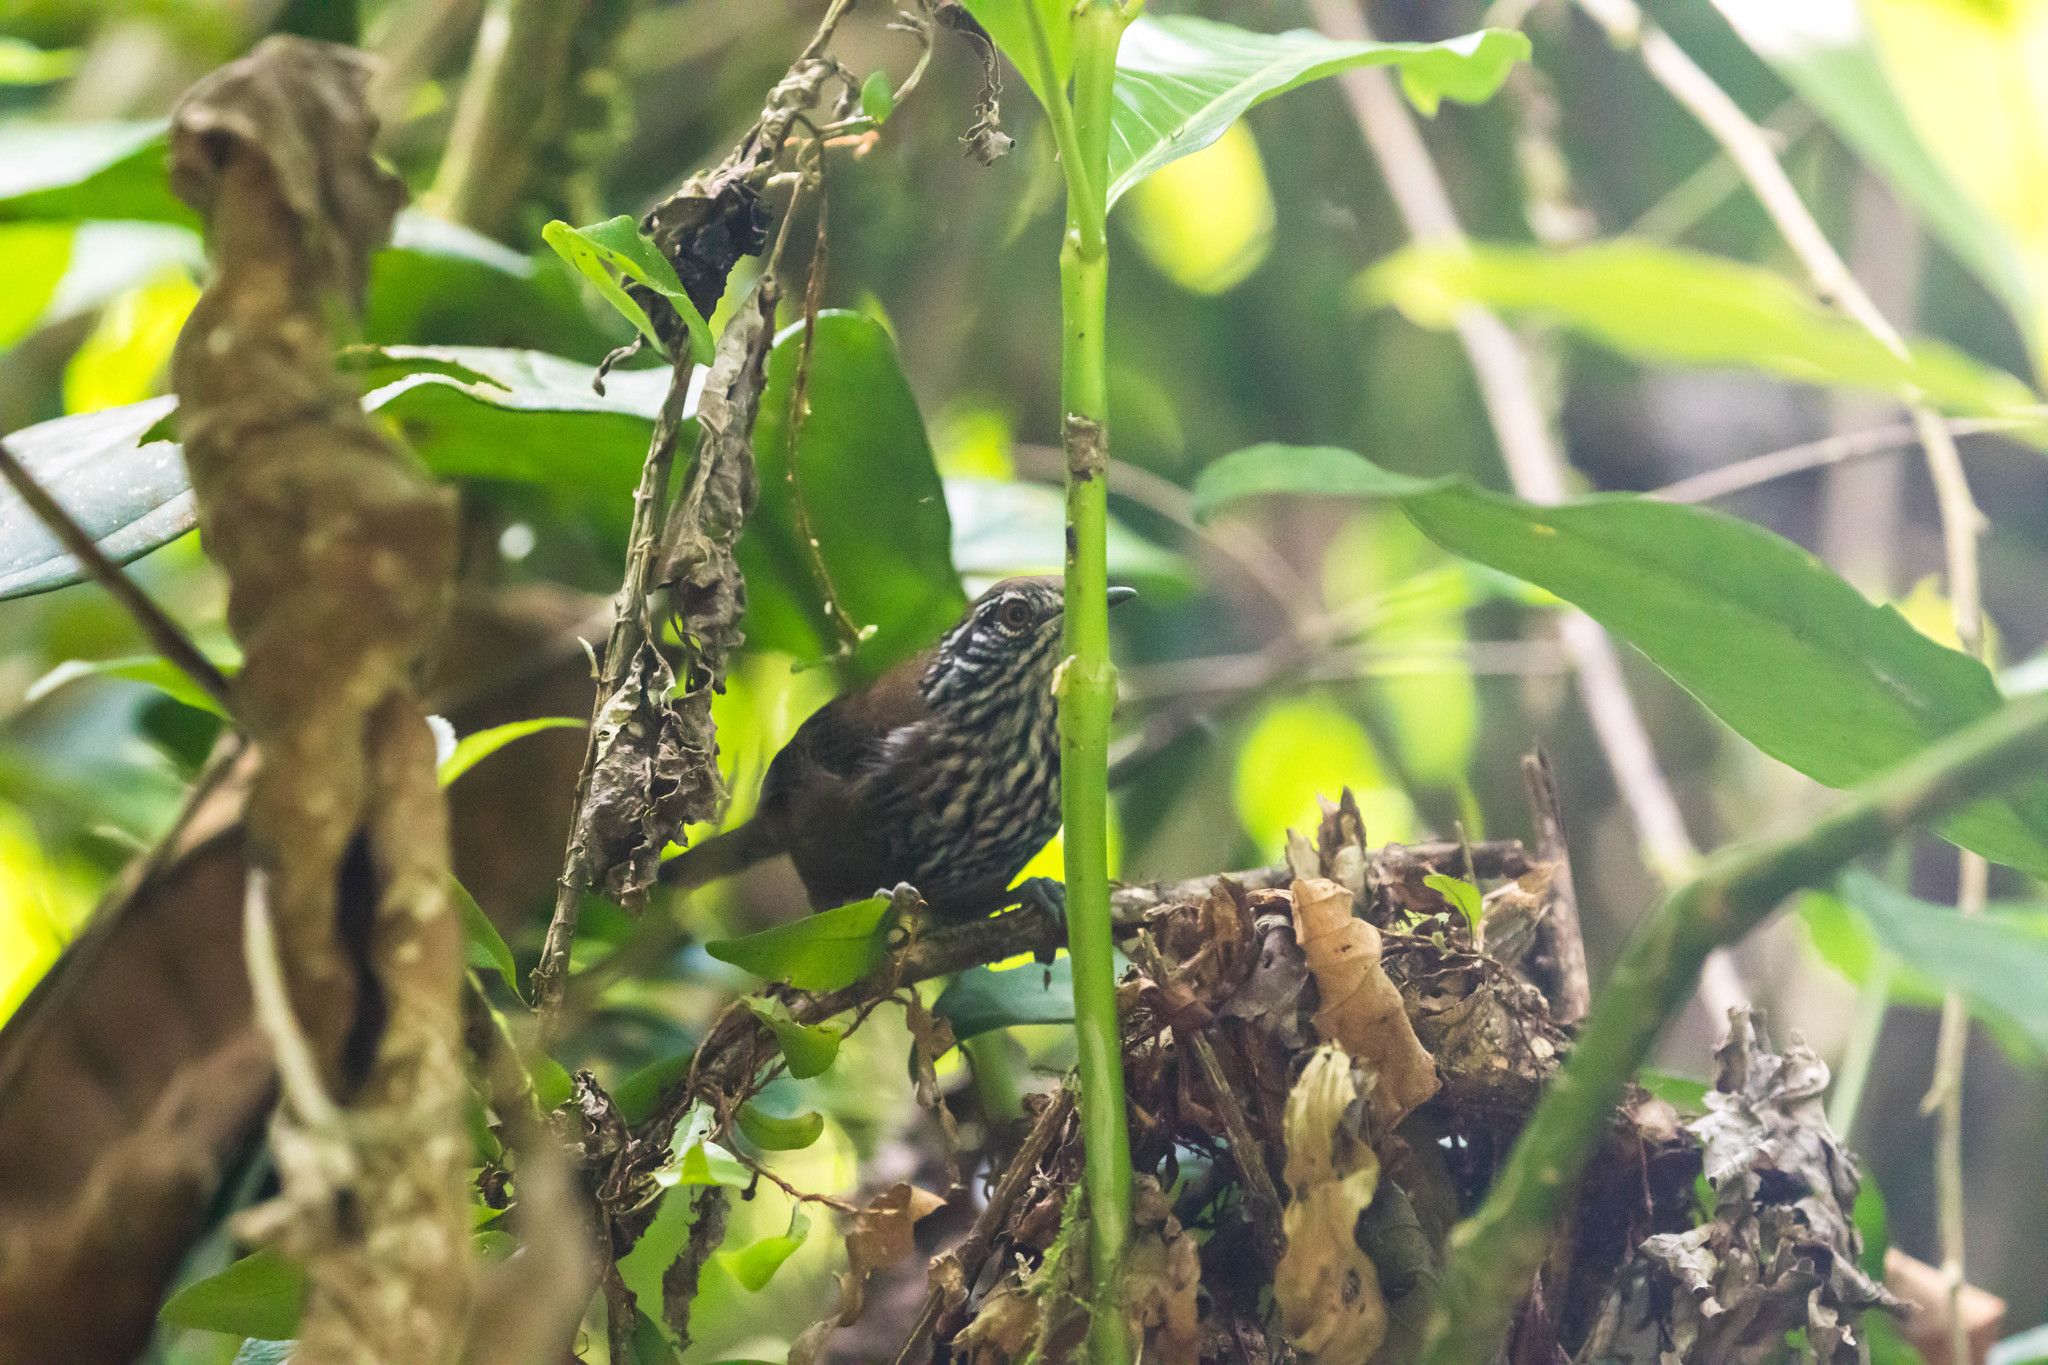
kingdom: Animalia
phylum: Chordata
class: Aves
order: Passeriformes
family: Troglodytidae
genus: Cantorchilus
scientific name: Cantorchilus thoracicus
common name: Stripe-breasted wren
